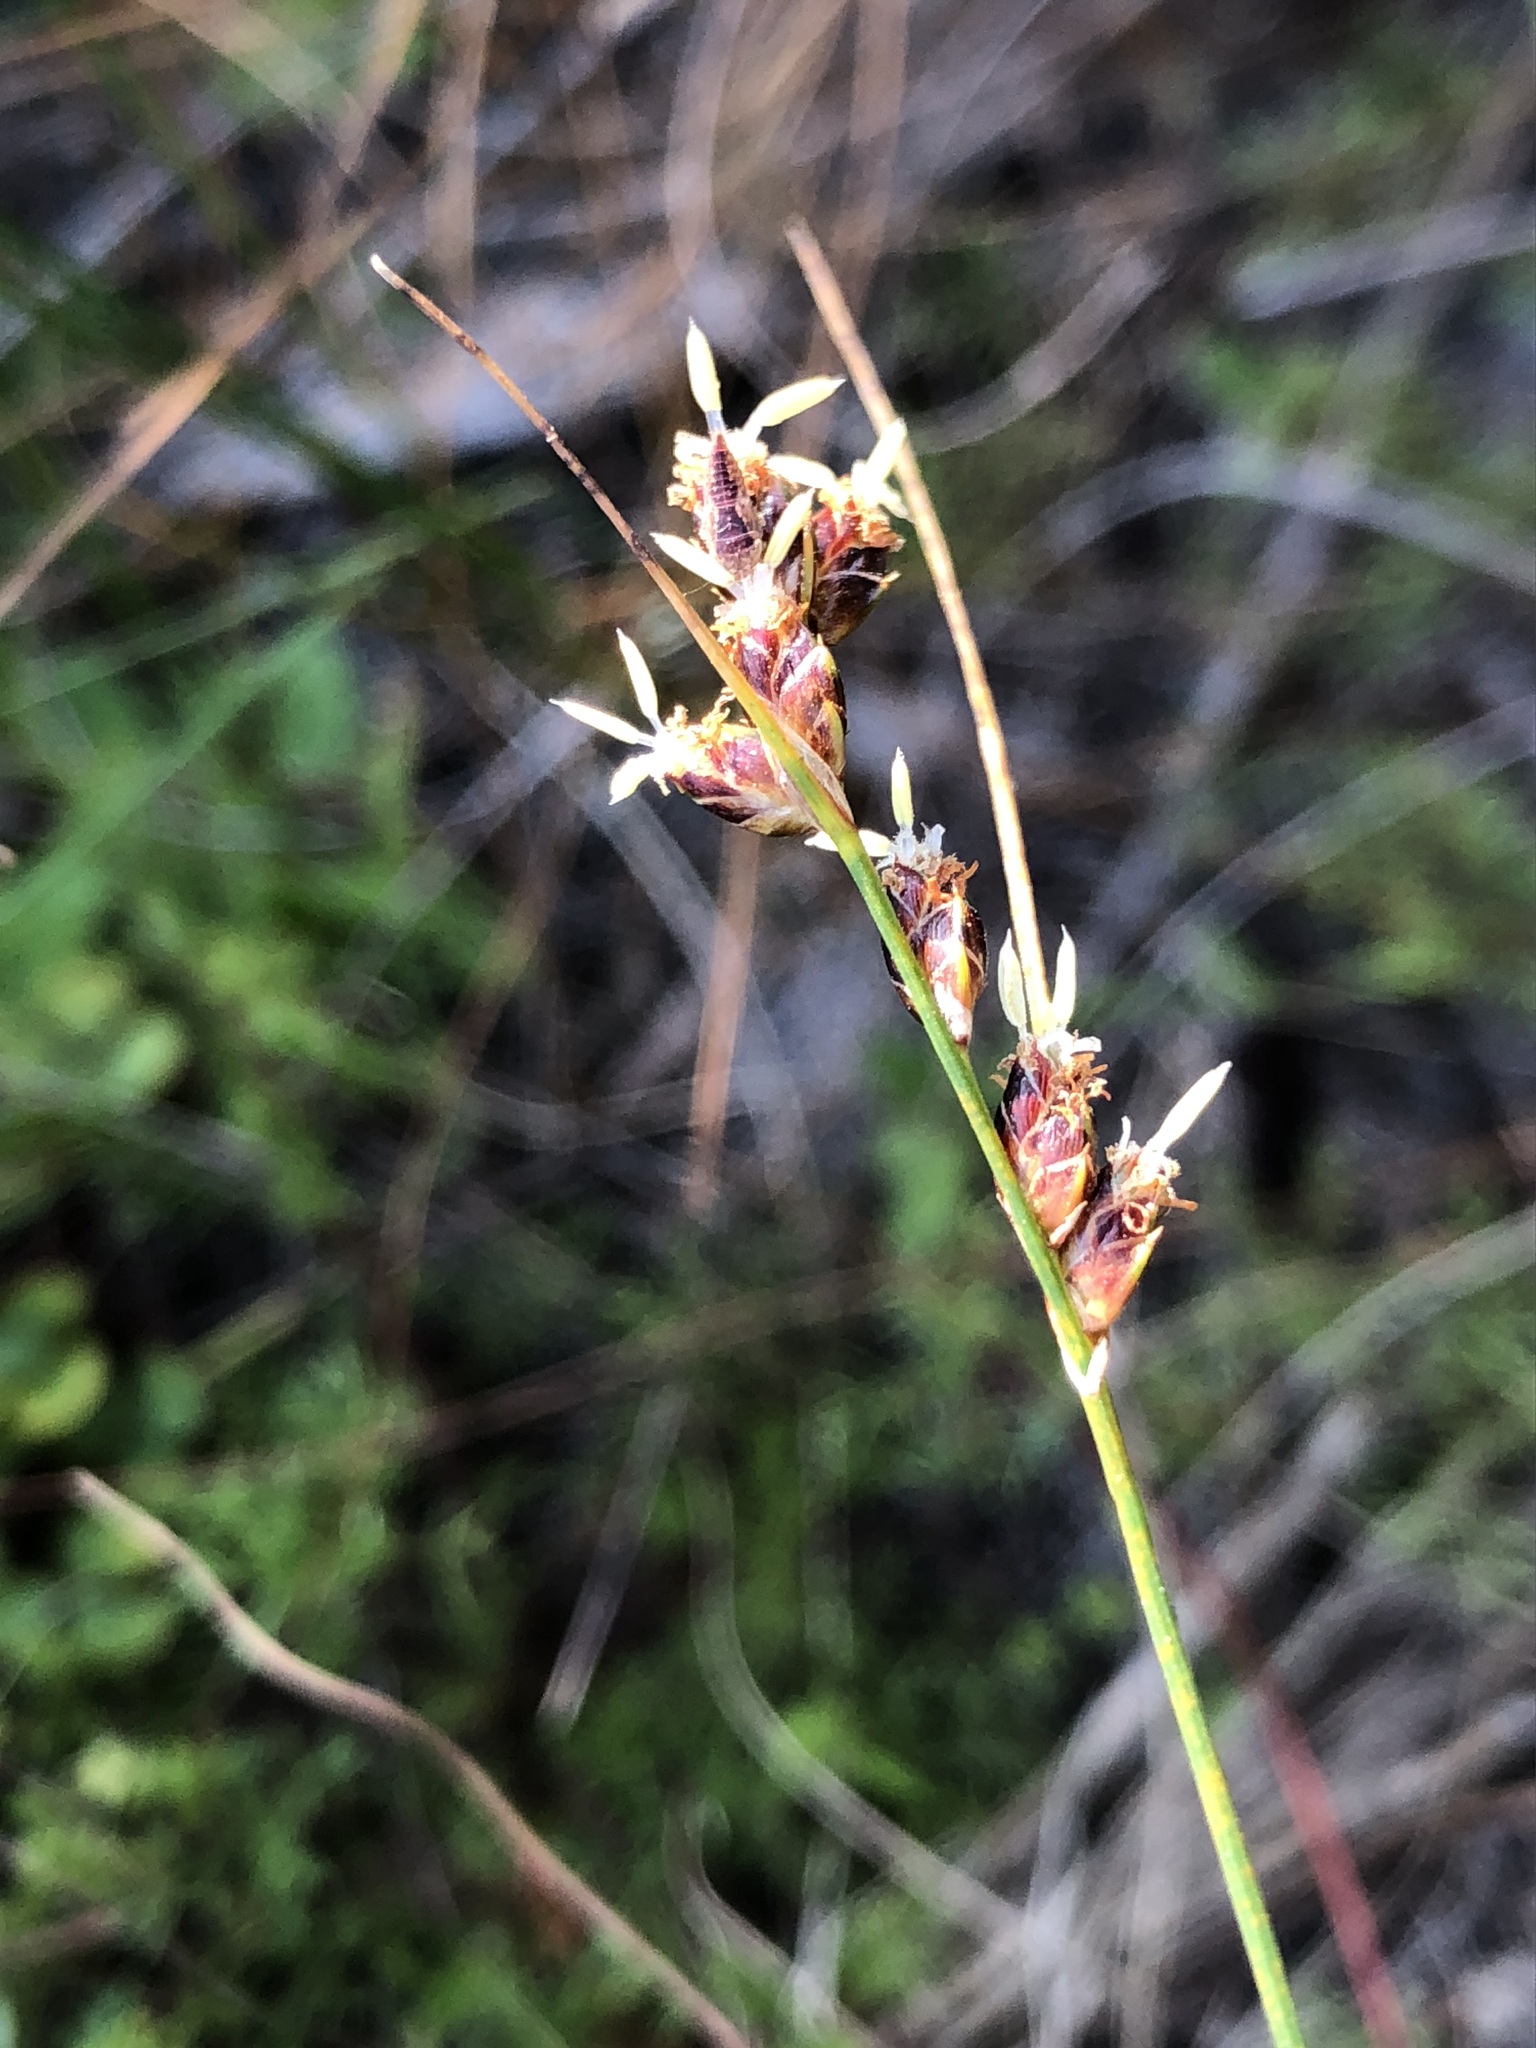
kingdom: Plantae
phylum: Tracheophyta
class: Liliopsida
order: Poales
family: Cyperaceae
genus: Ficinia
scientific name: Ficinia secunda
